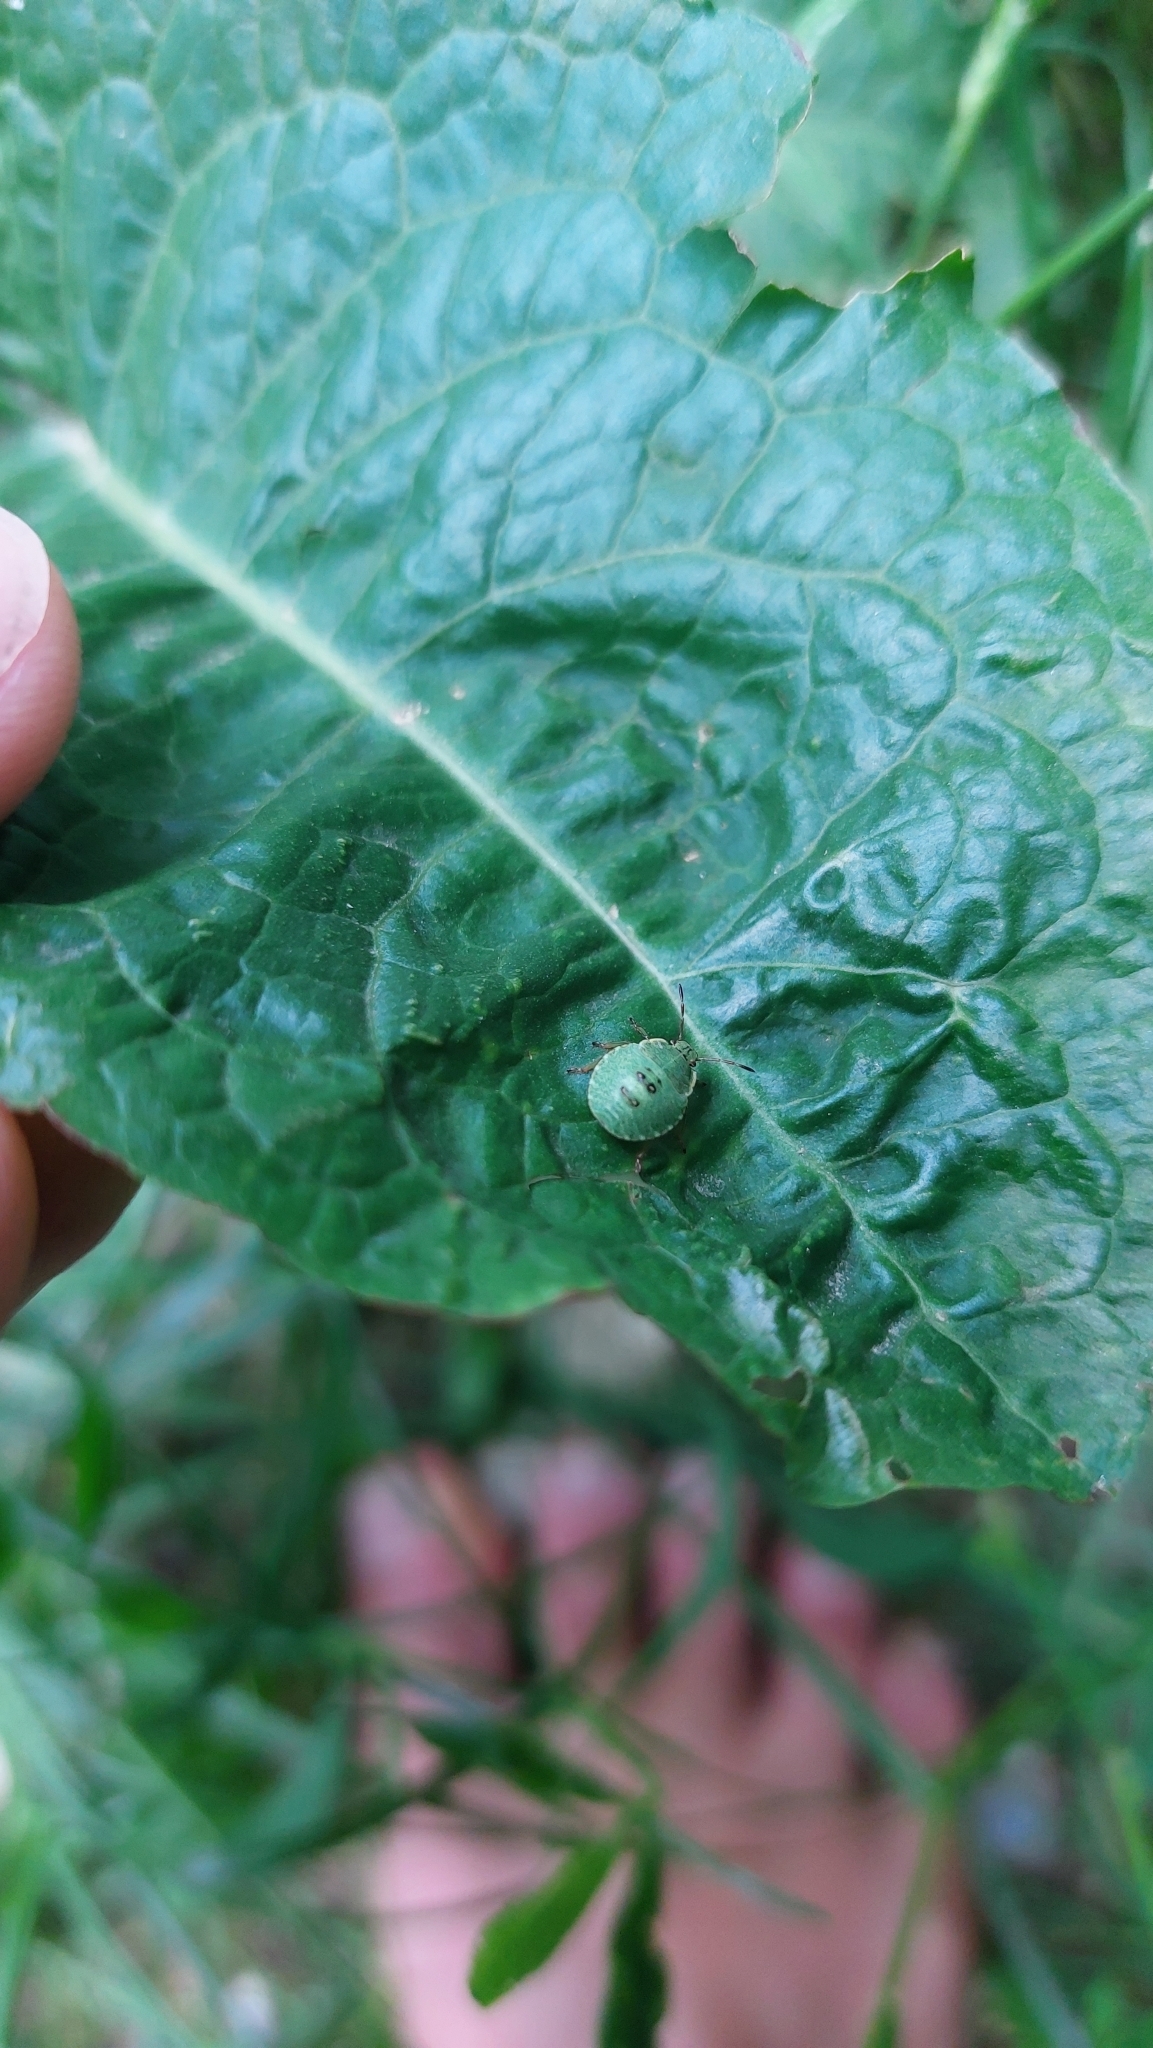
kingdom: Animalia
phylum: Arthropoda
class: Insecta
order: Hemiptera
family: Pentatomidae
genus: Palomena
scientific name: Palomena prasina
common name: Green shieldbug
